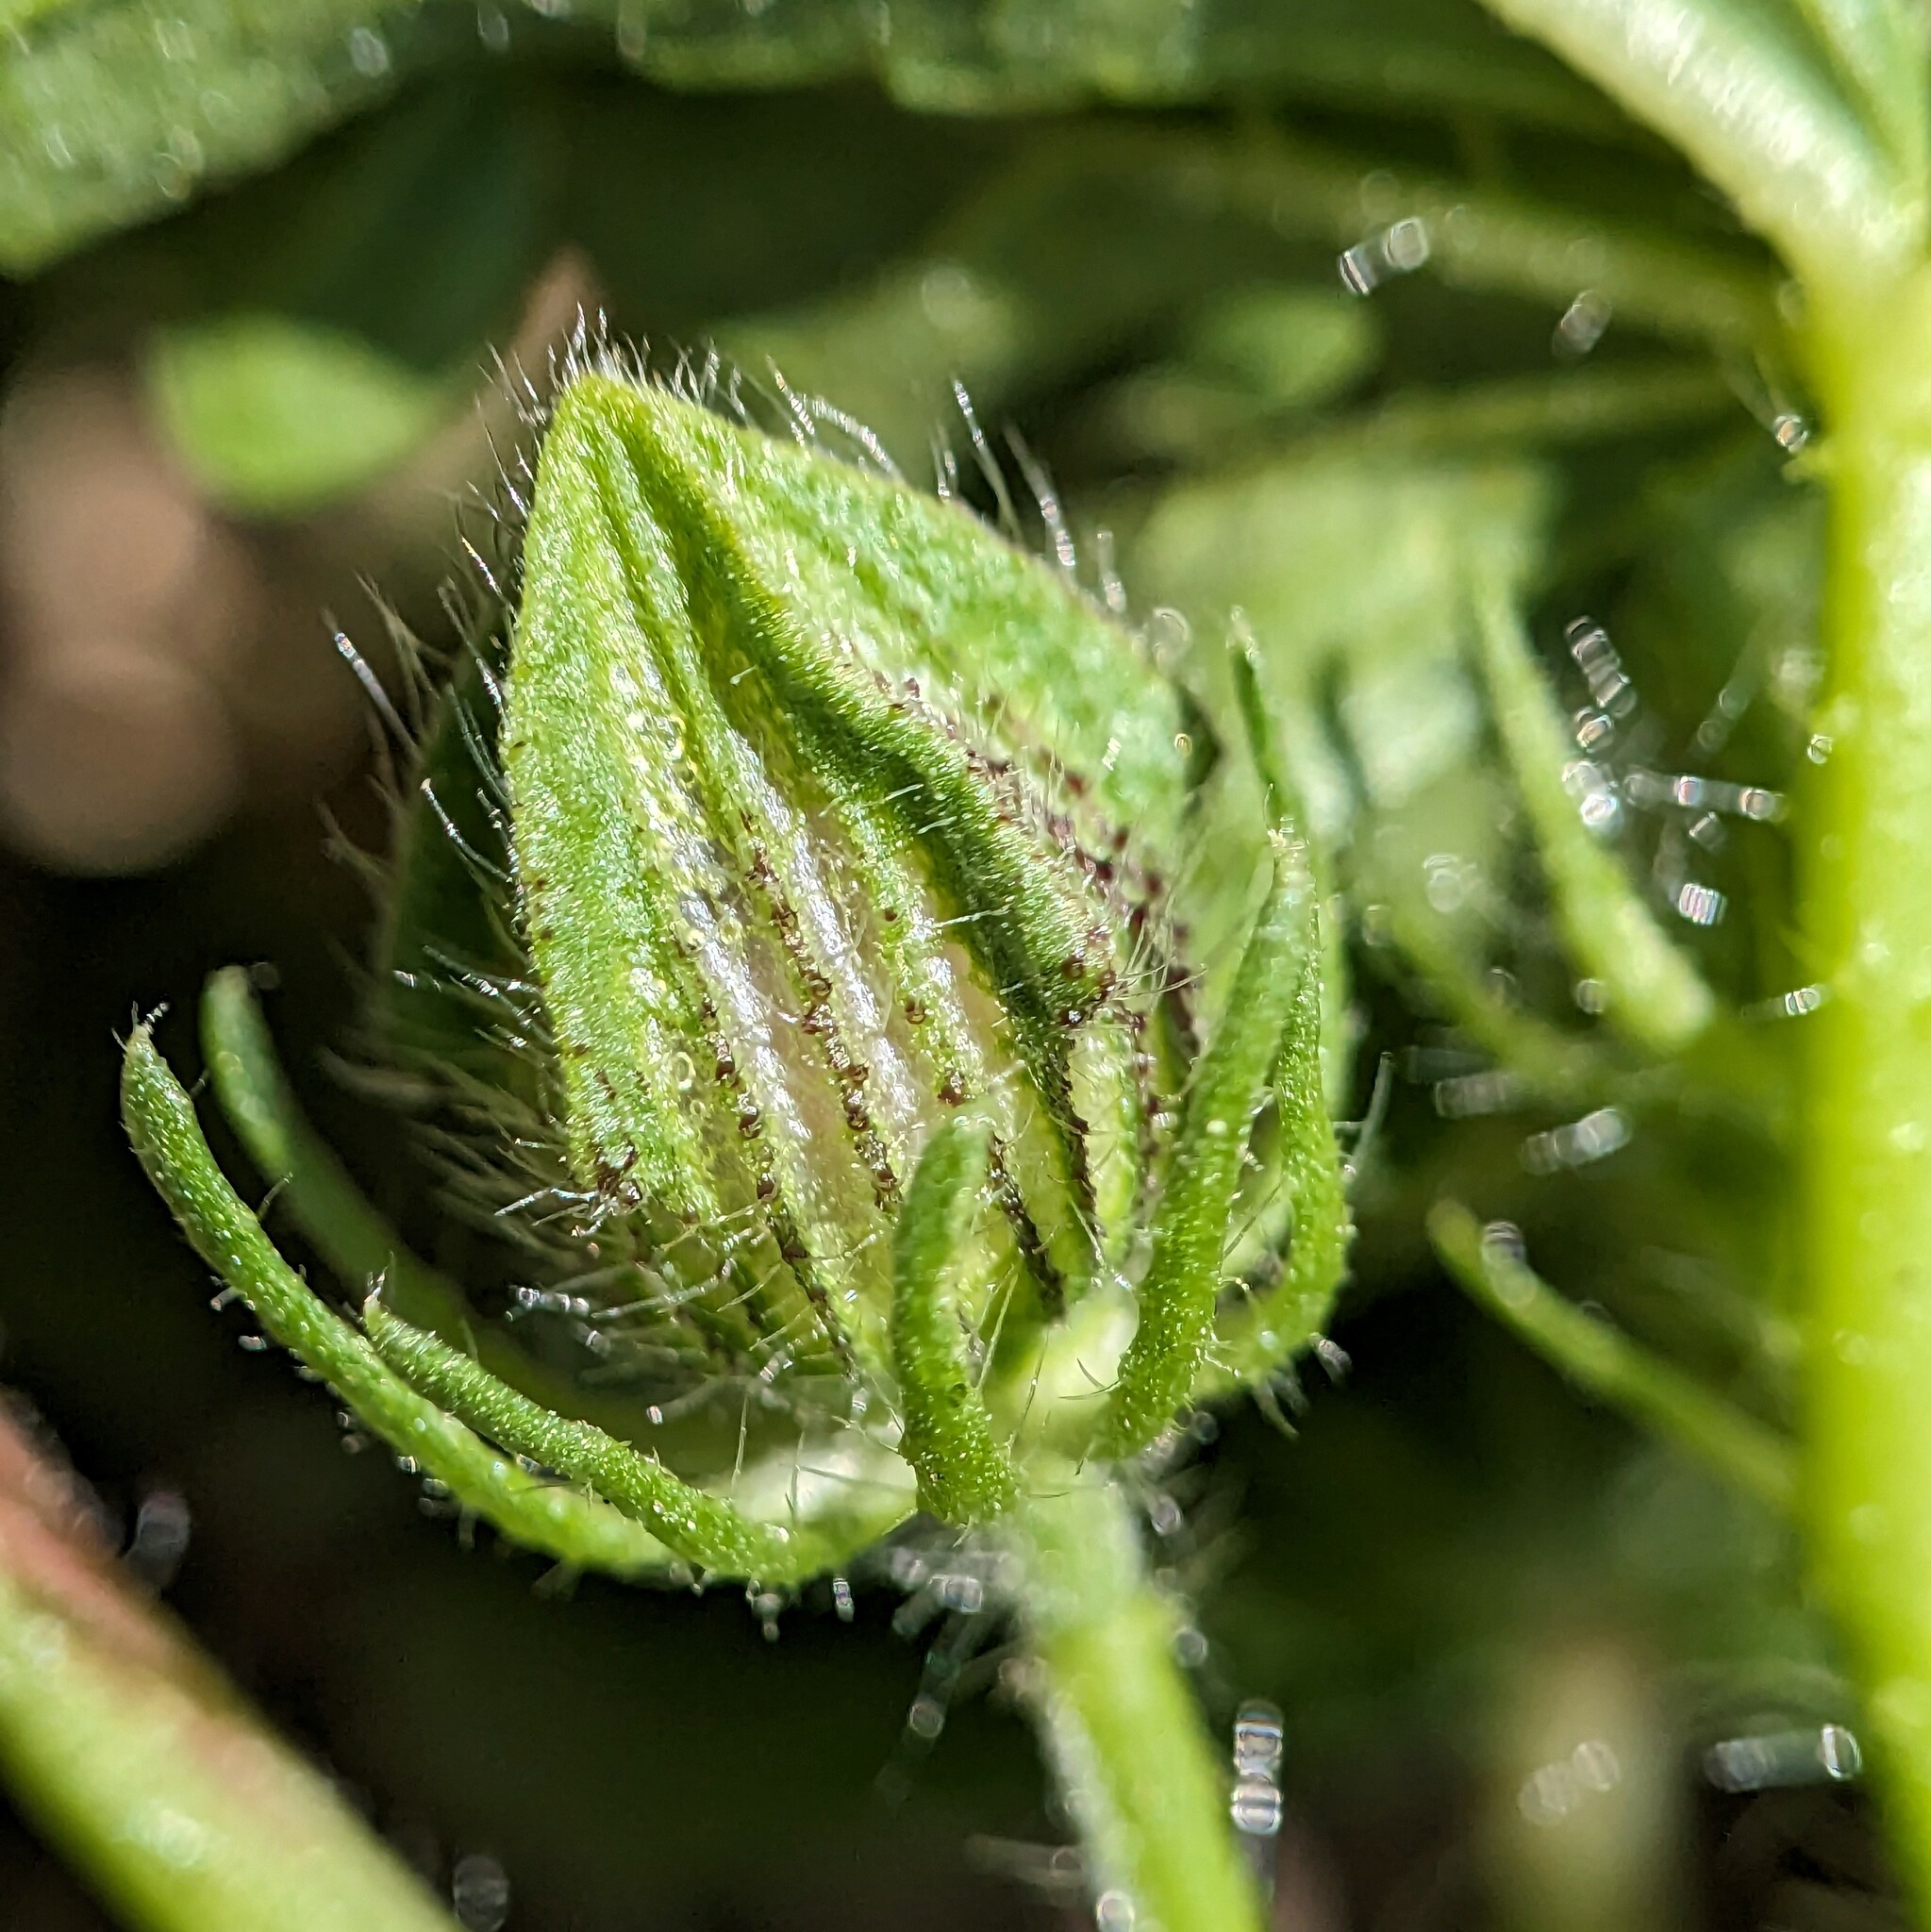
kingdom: Plantae
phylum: Tracheophyta
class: Magnoliopsida
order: Malvales
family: Malvaceae
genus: Hibiscus
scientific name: Hibiscus trionum
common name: Bladder ketmia
